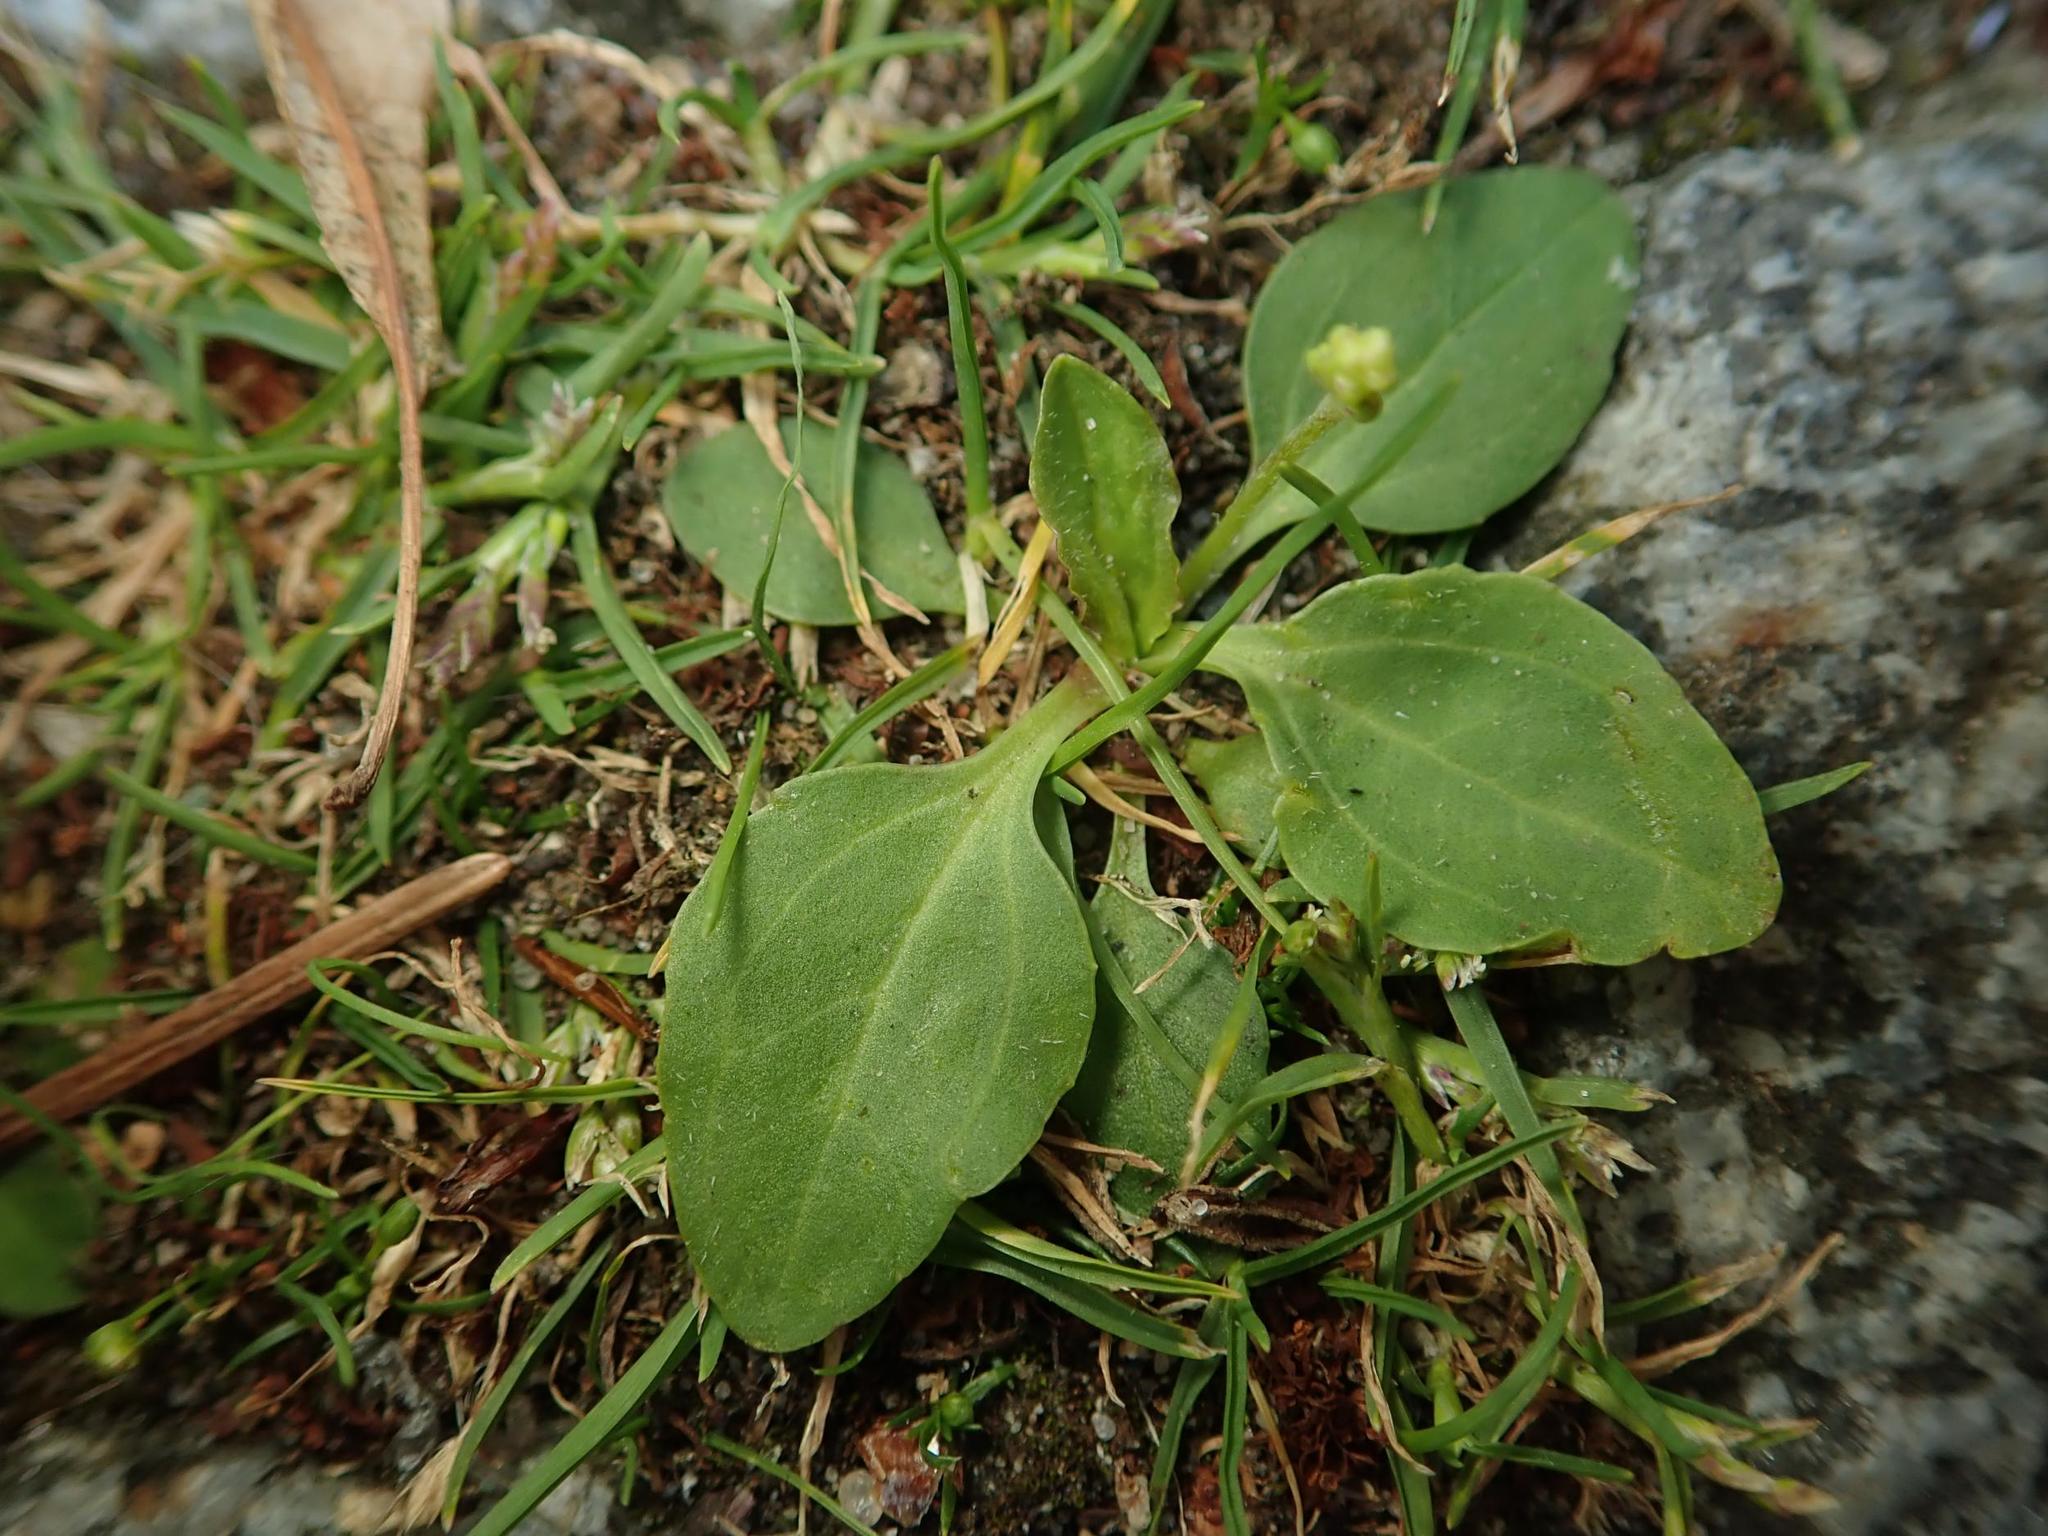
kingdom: Plantae
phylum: Tracheophyta
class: Magnoliopsida
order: Lamiales
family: Plantaginaceae
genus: Plantago
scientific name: Plantago major
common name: Common plantain
